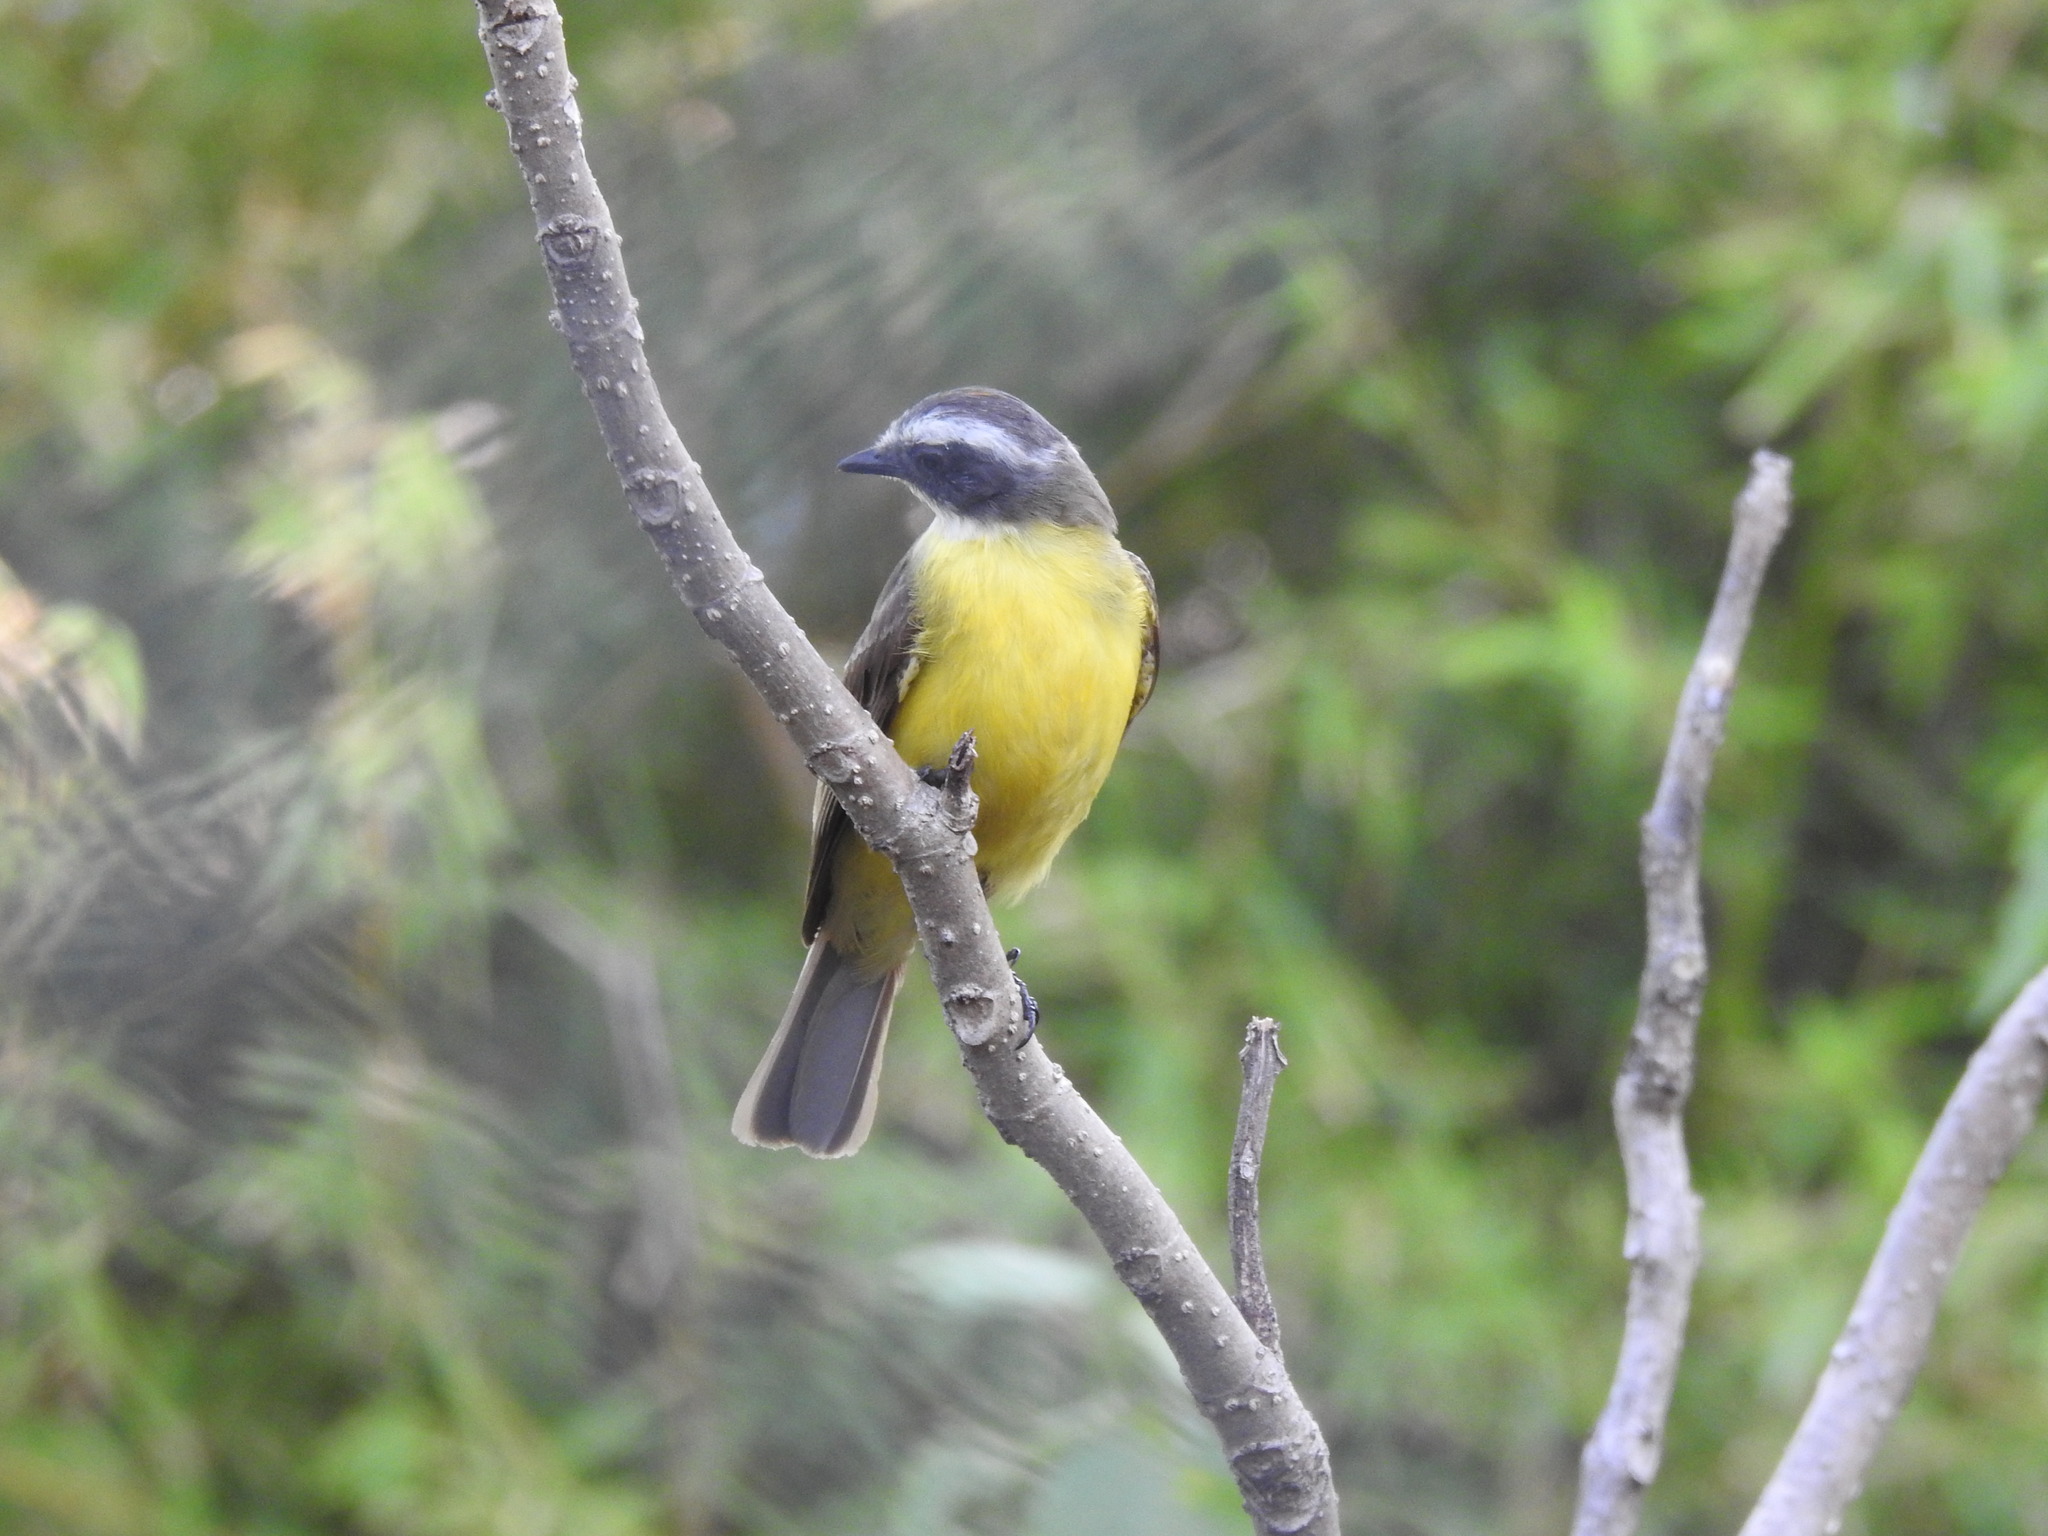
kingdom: Animalia
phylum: Chordata
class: Aves
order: Passeriformes
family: Tyrannidae
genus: Myiozetetes
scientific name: Myiozetetes similis
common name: Social flycatcher
